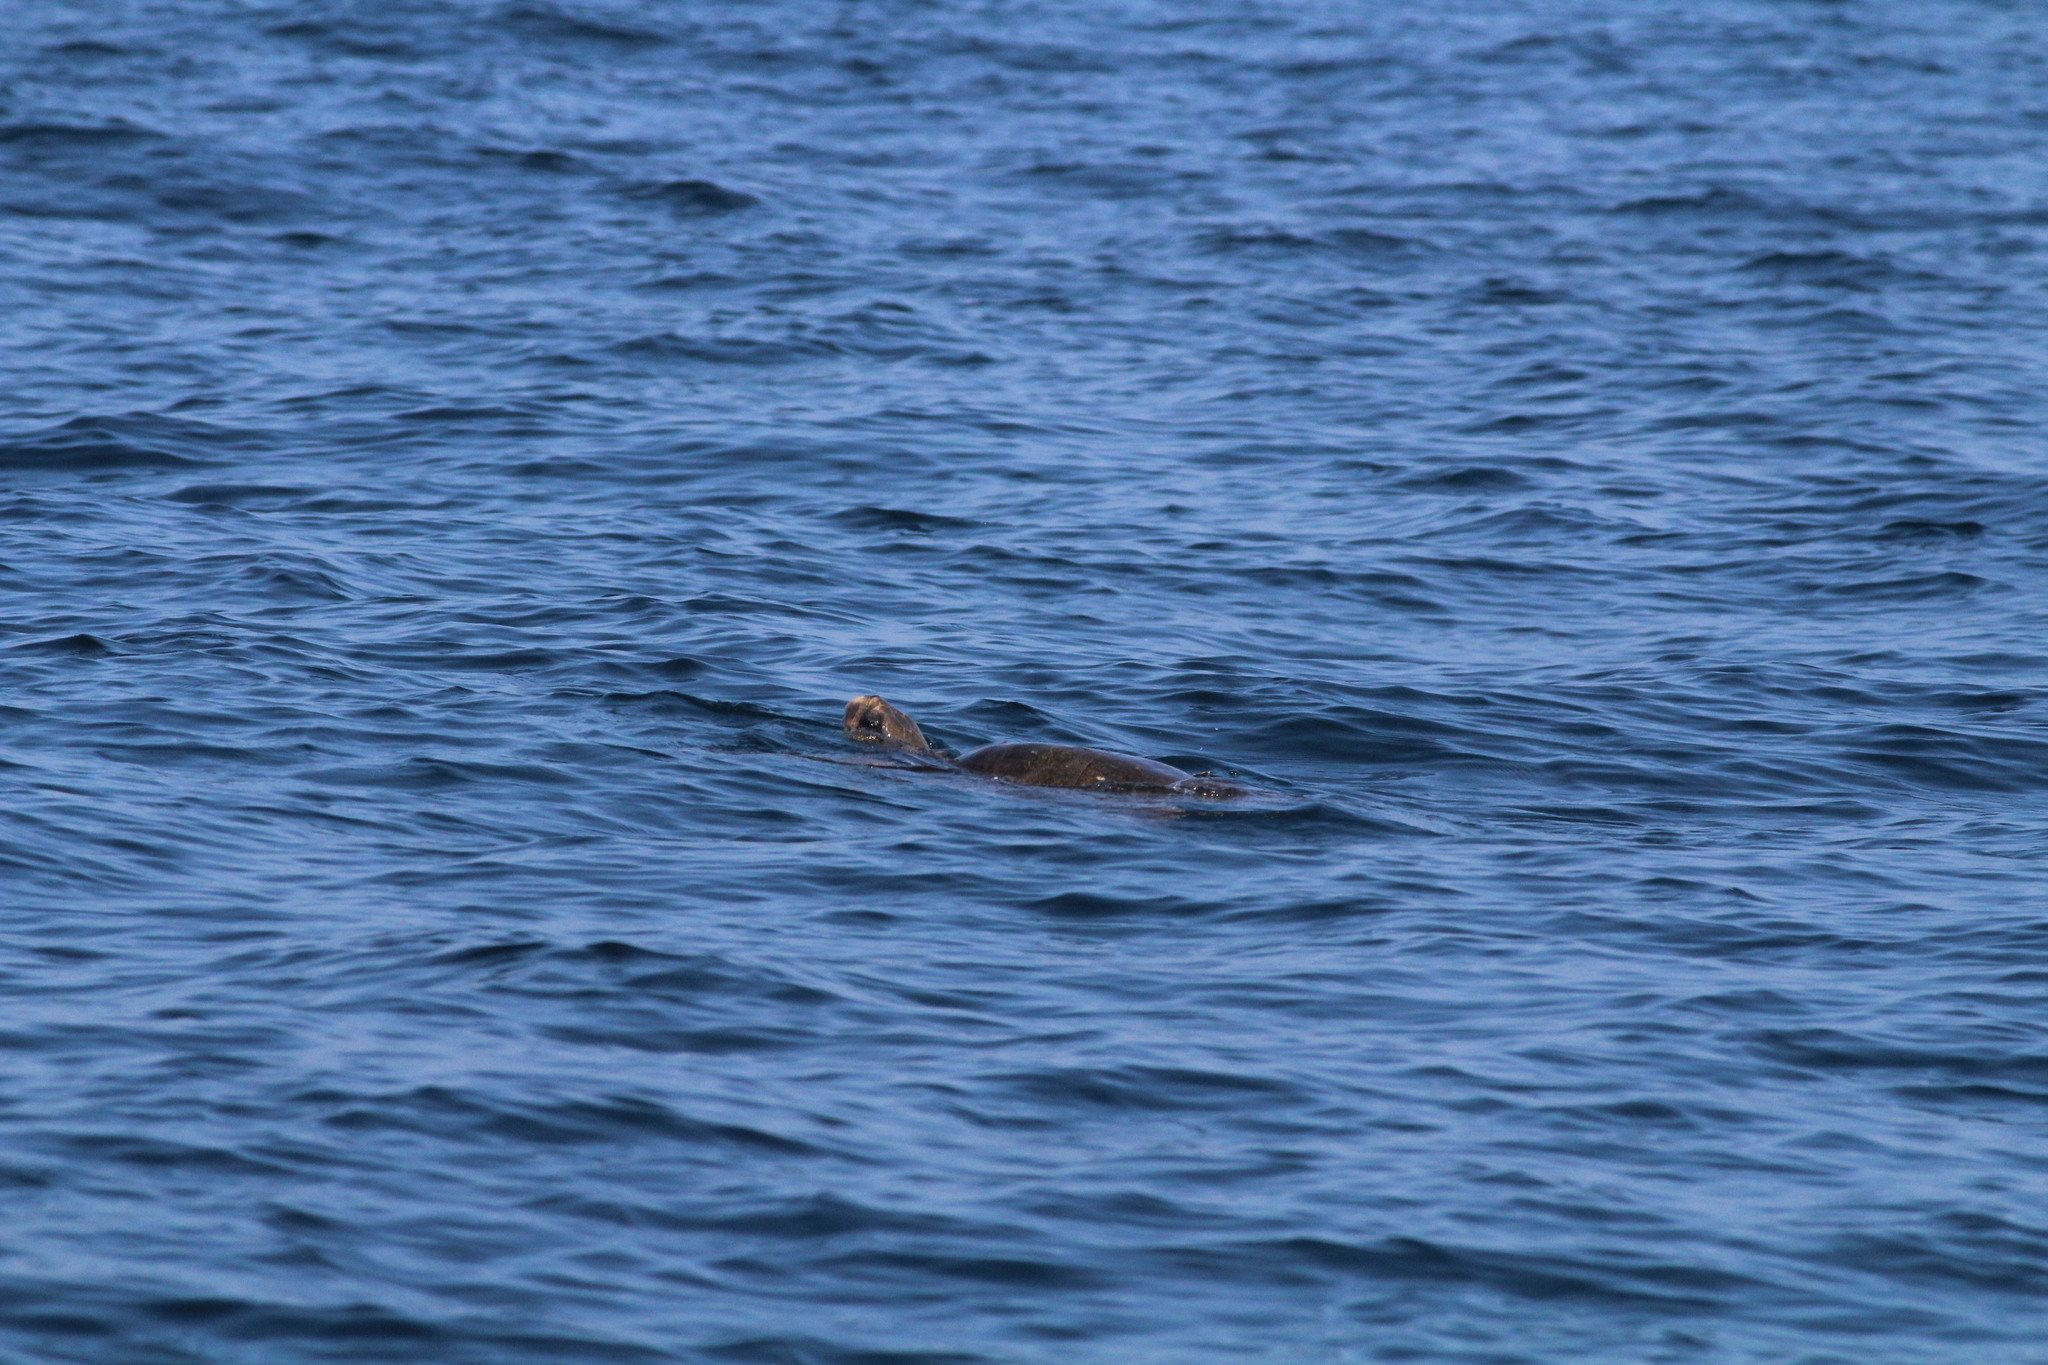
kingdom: Animalia
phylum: Chordata
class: Testudines
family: Cheloniidae
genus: Lepidochelys
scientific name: Lepidochelys olivacea
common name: Olive ridley
